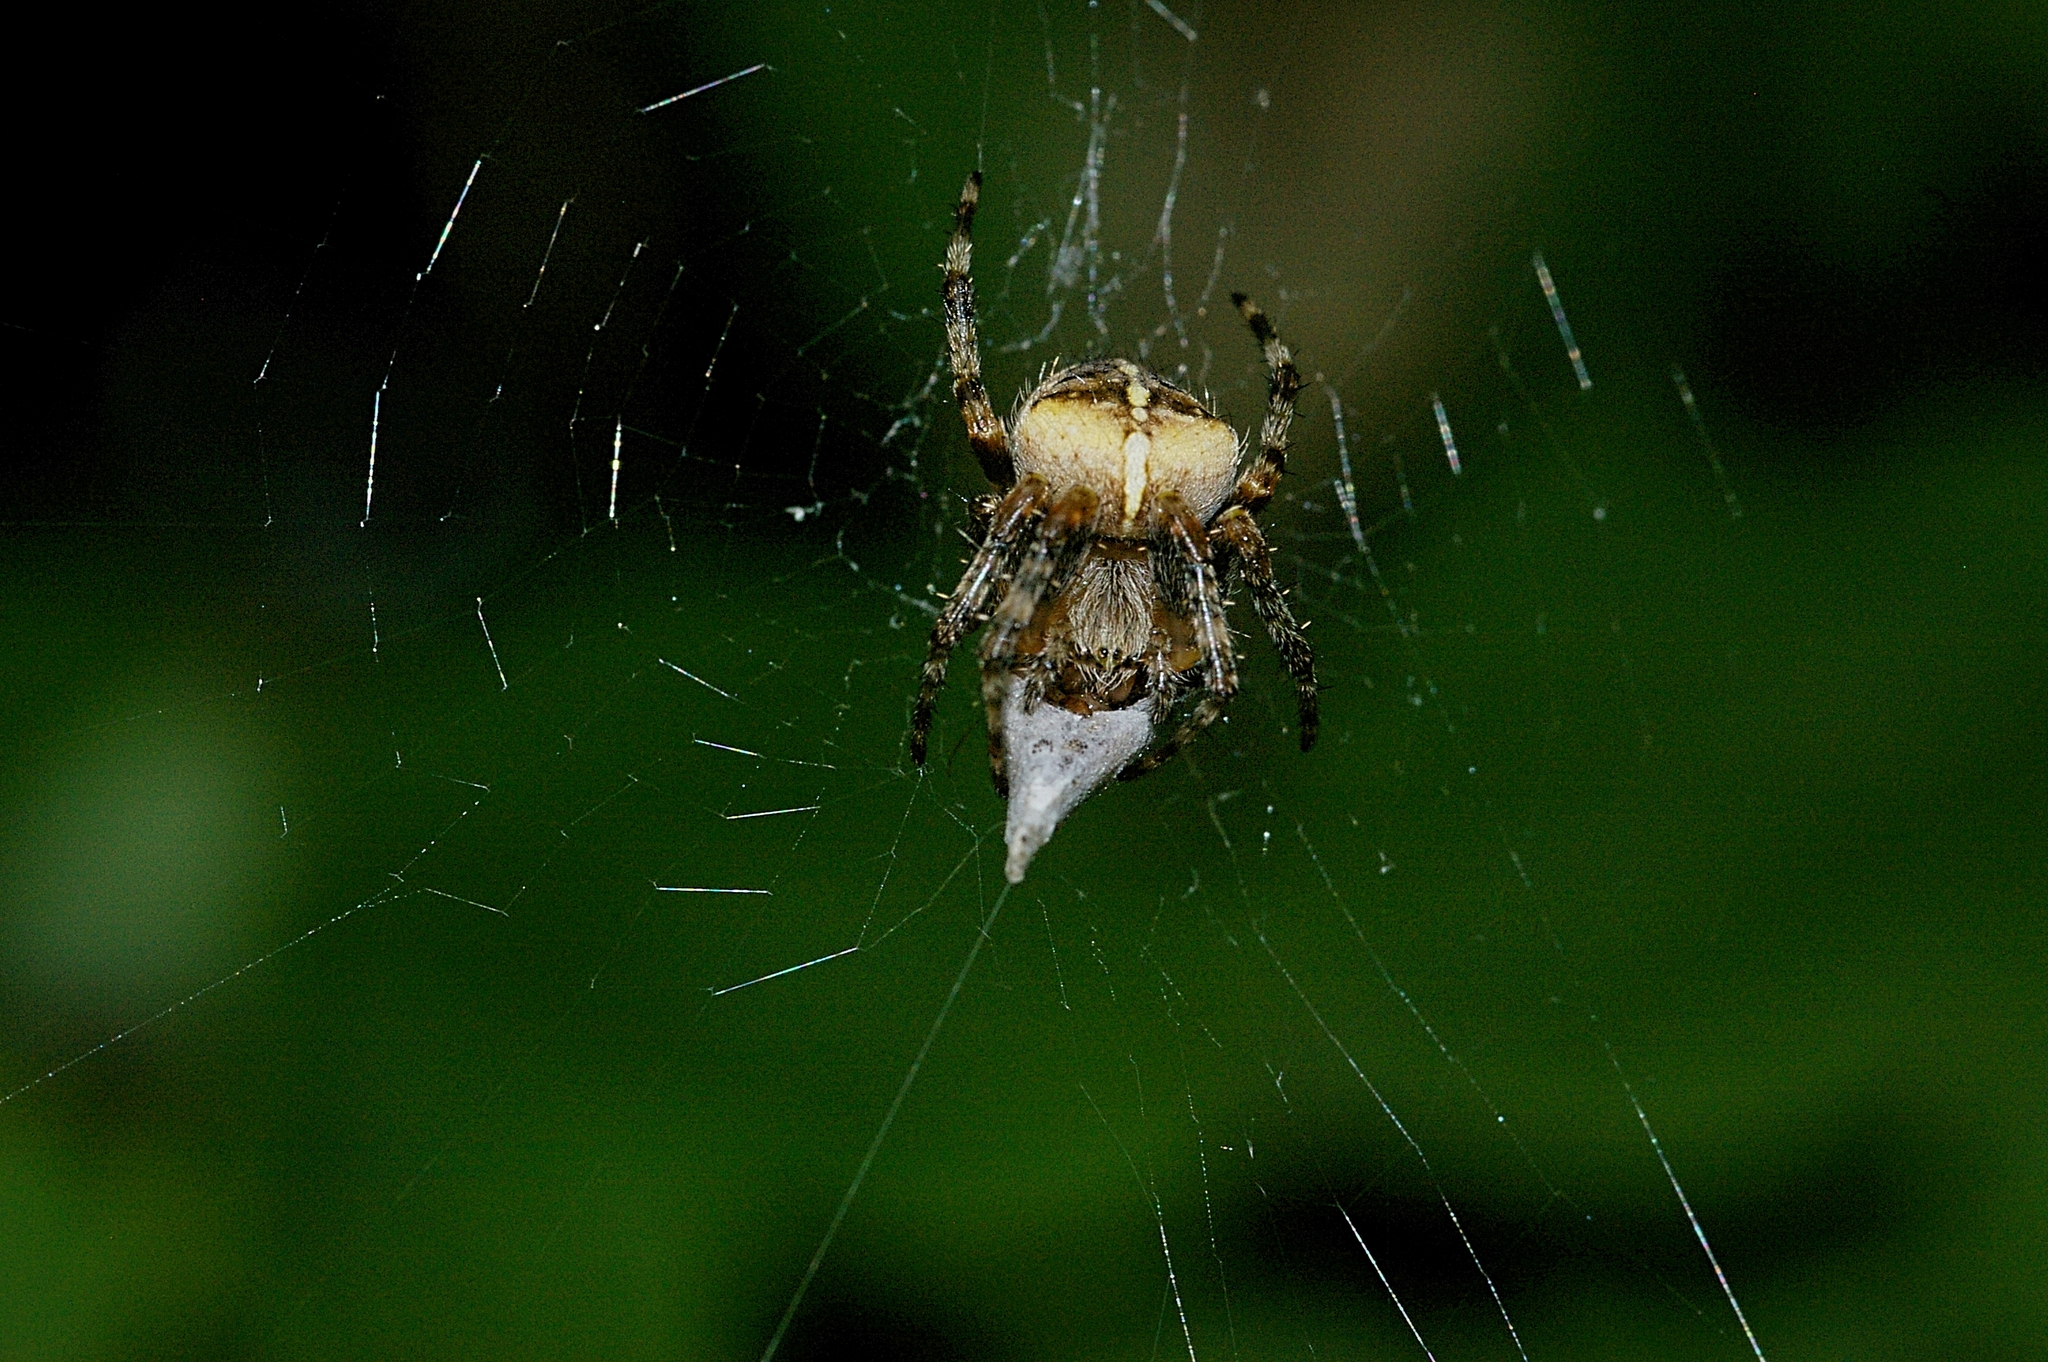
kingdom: Animalia
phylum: Arthropoda
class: Arachnida
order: Araneae
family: Araneidae
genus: Araneus
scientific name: Araneus diadematus
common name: Cross orbweaver
